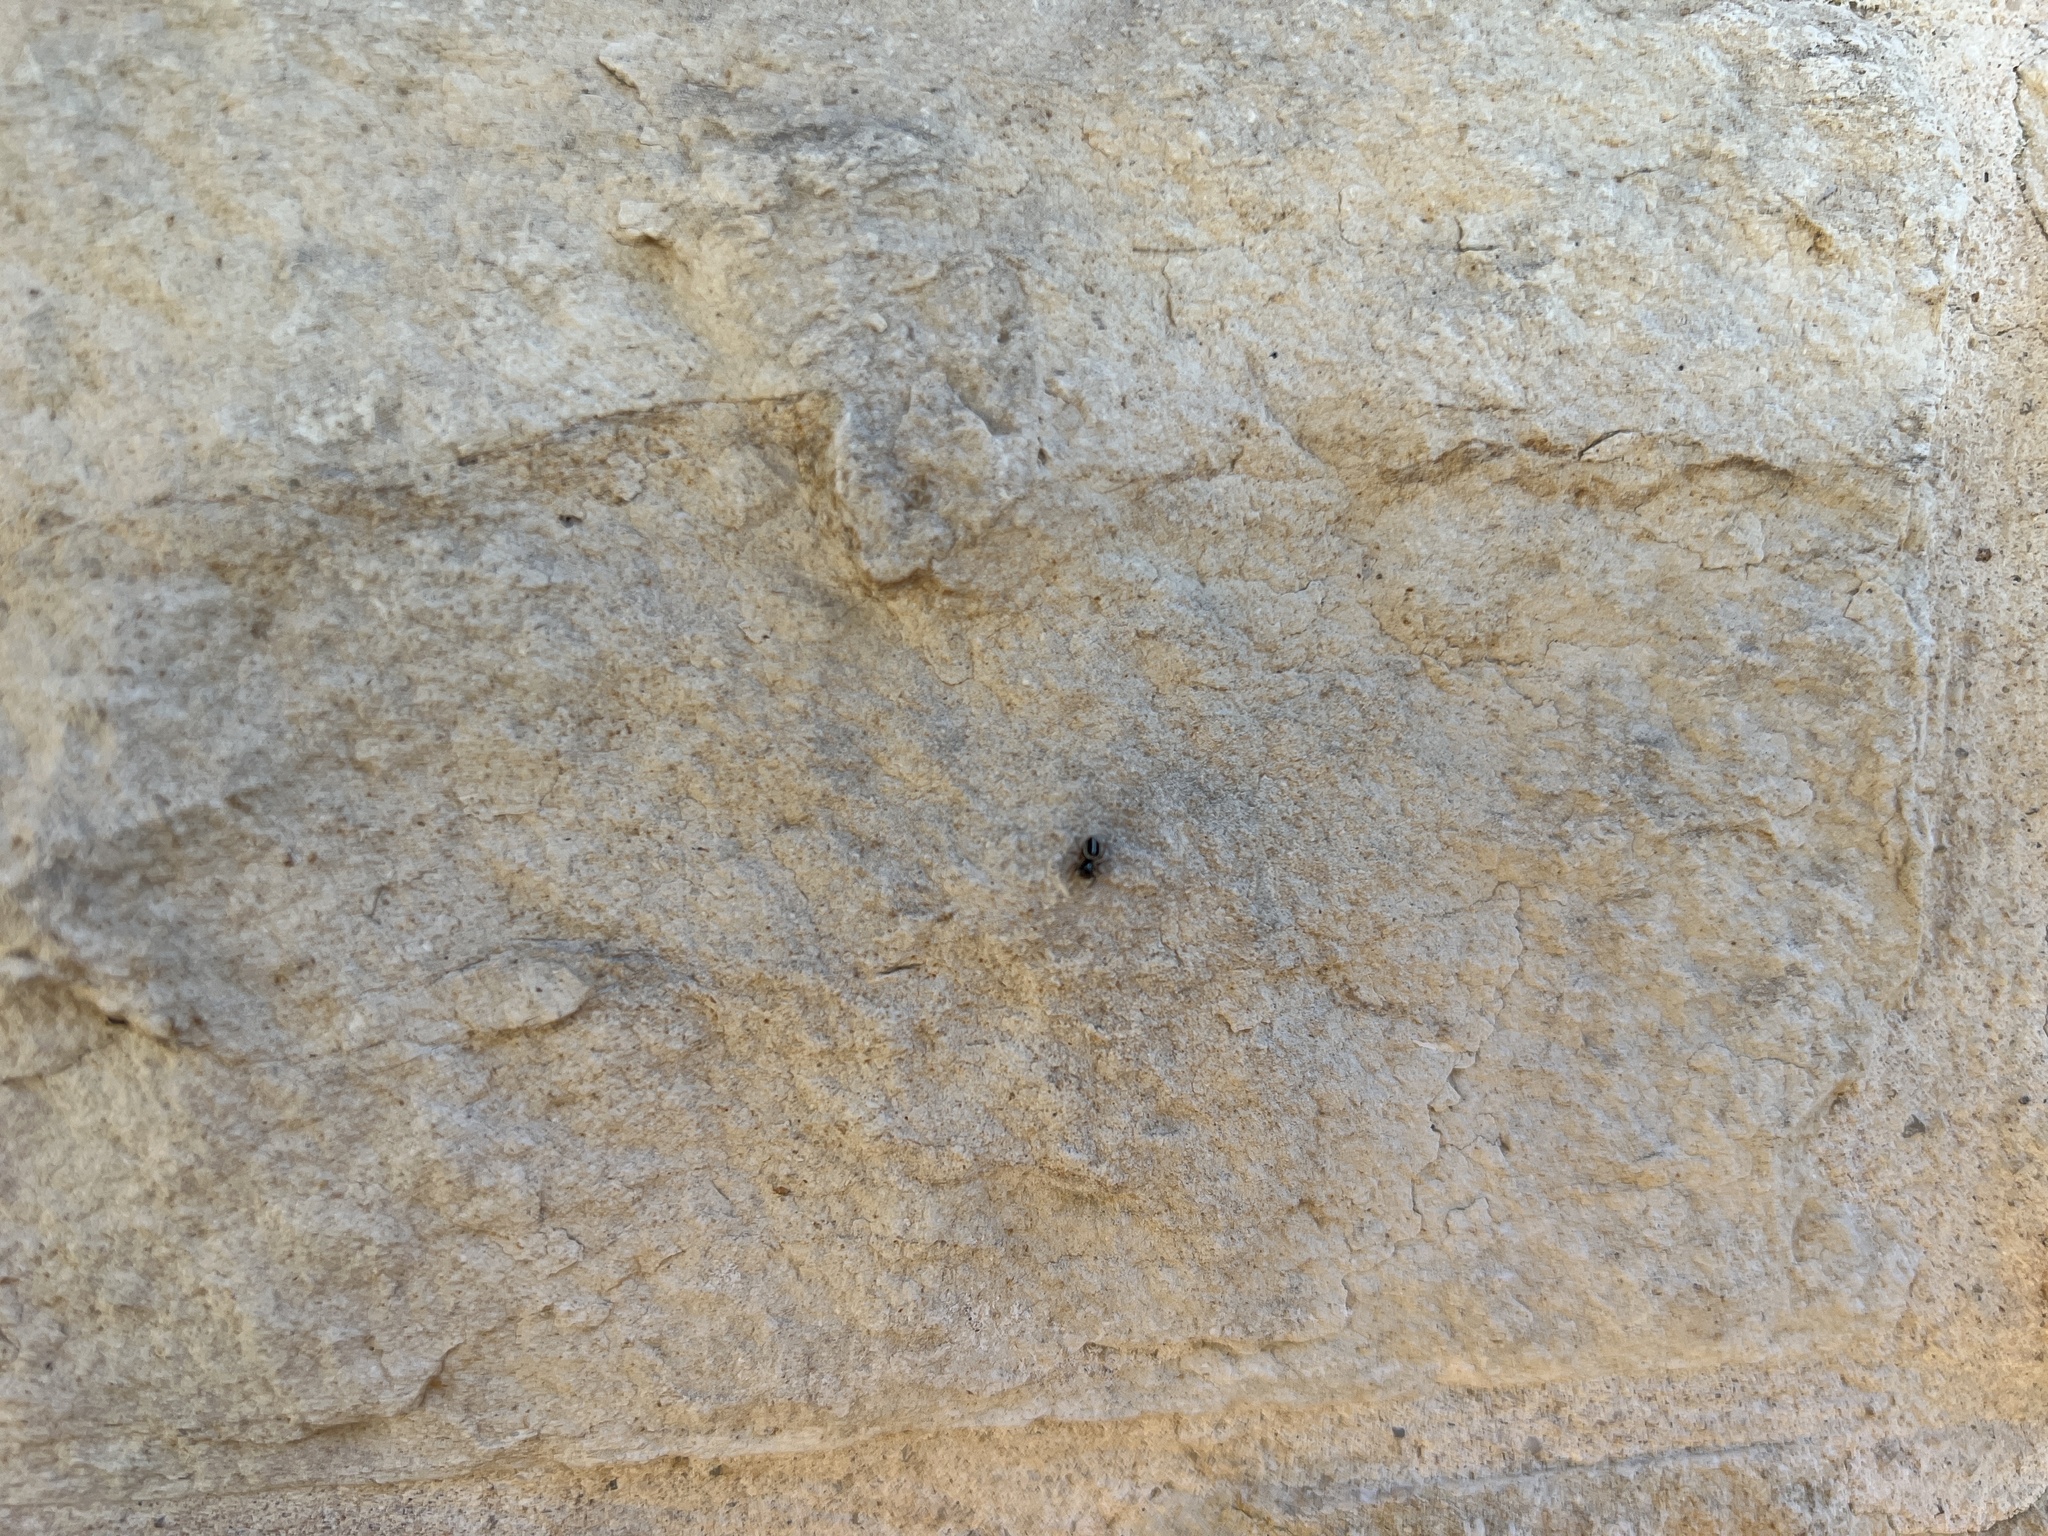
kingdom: Animalia
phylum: Arthropoda
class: Arachnida
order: Araneae
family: Salticidae
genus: Anasaitis
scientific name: Anasaitis canosa
